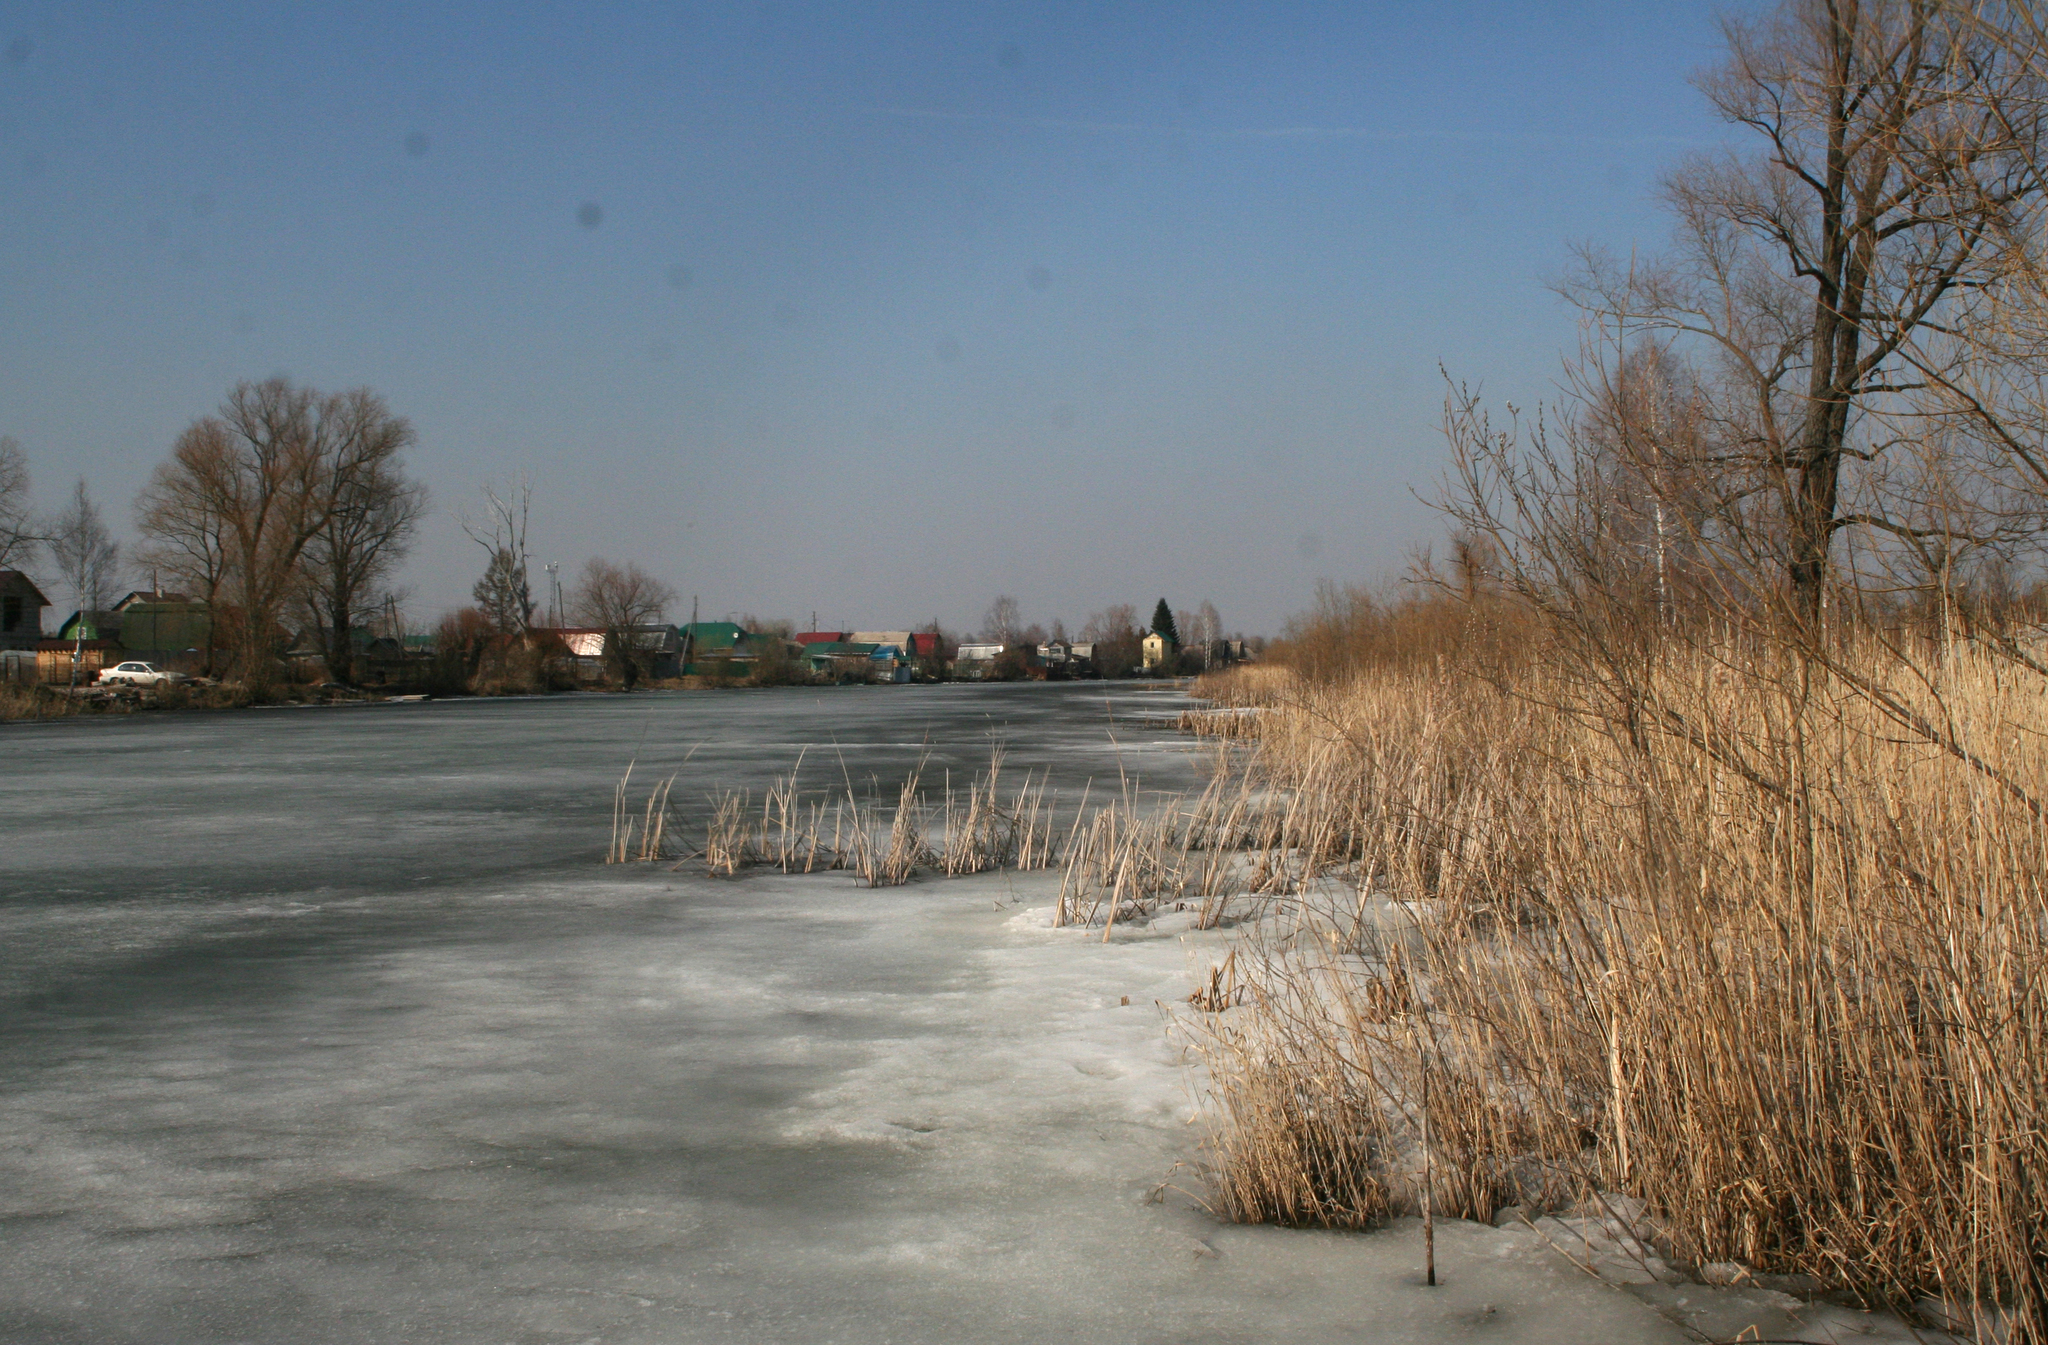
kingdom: Plantae
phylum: Tracheophyta
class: Liliopsida
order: Poales
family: Poaceae
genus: Phragmites
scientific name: Phragmites australis
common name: Common reed
